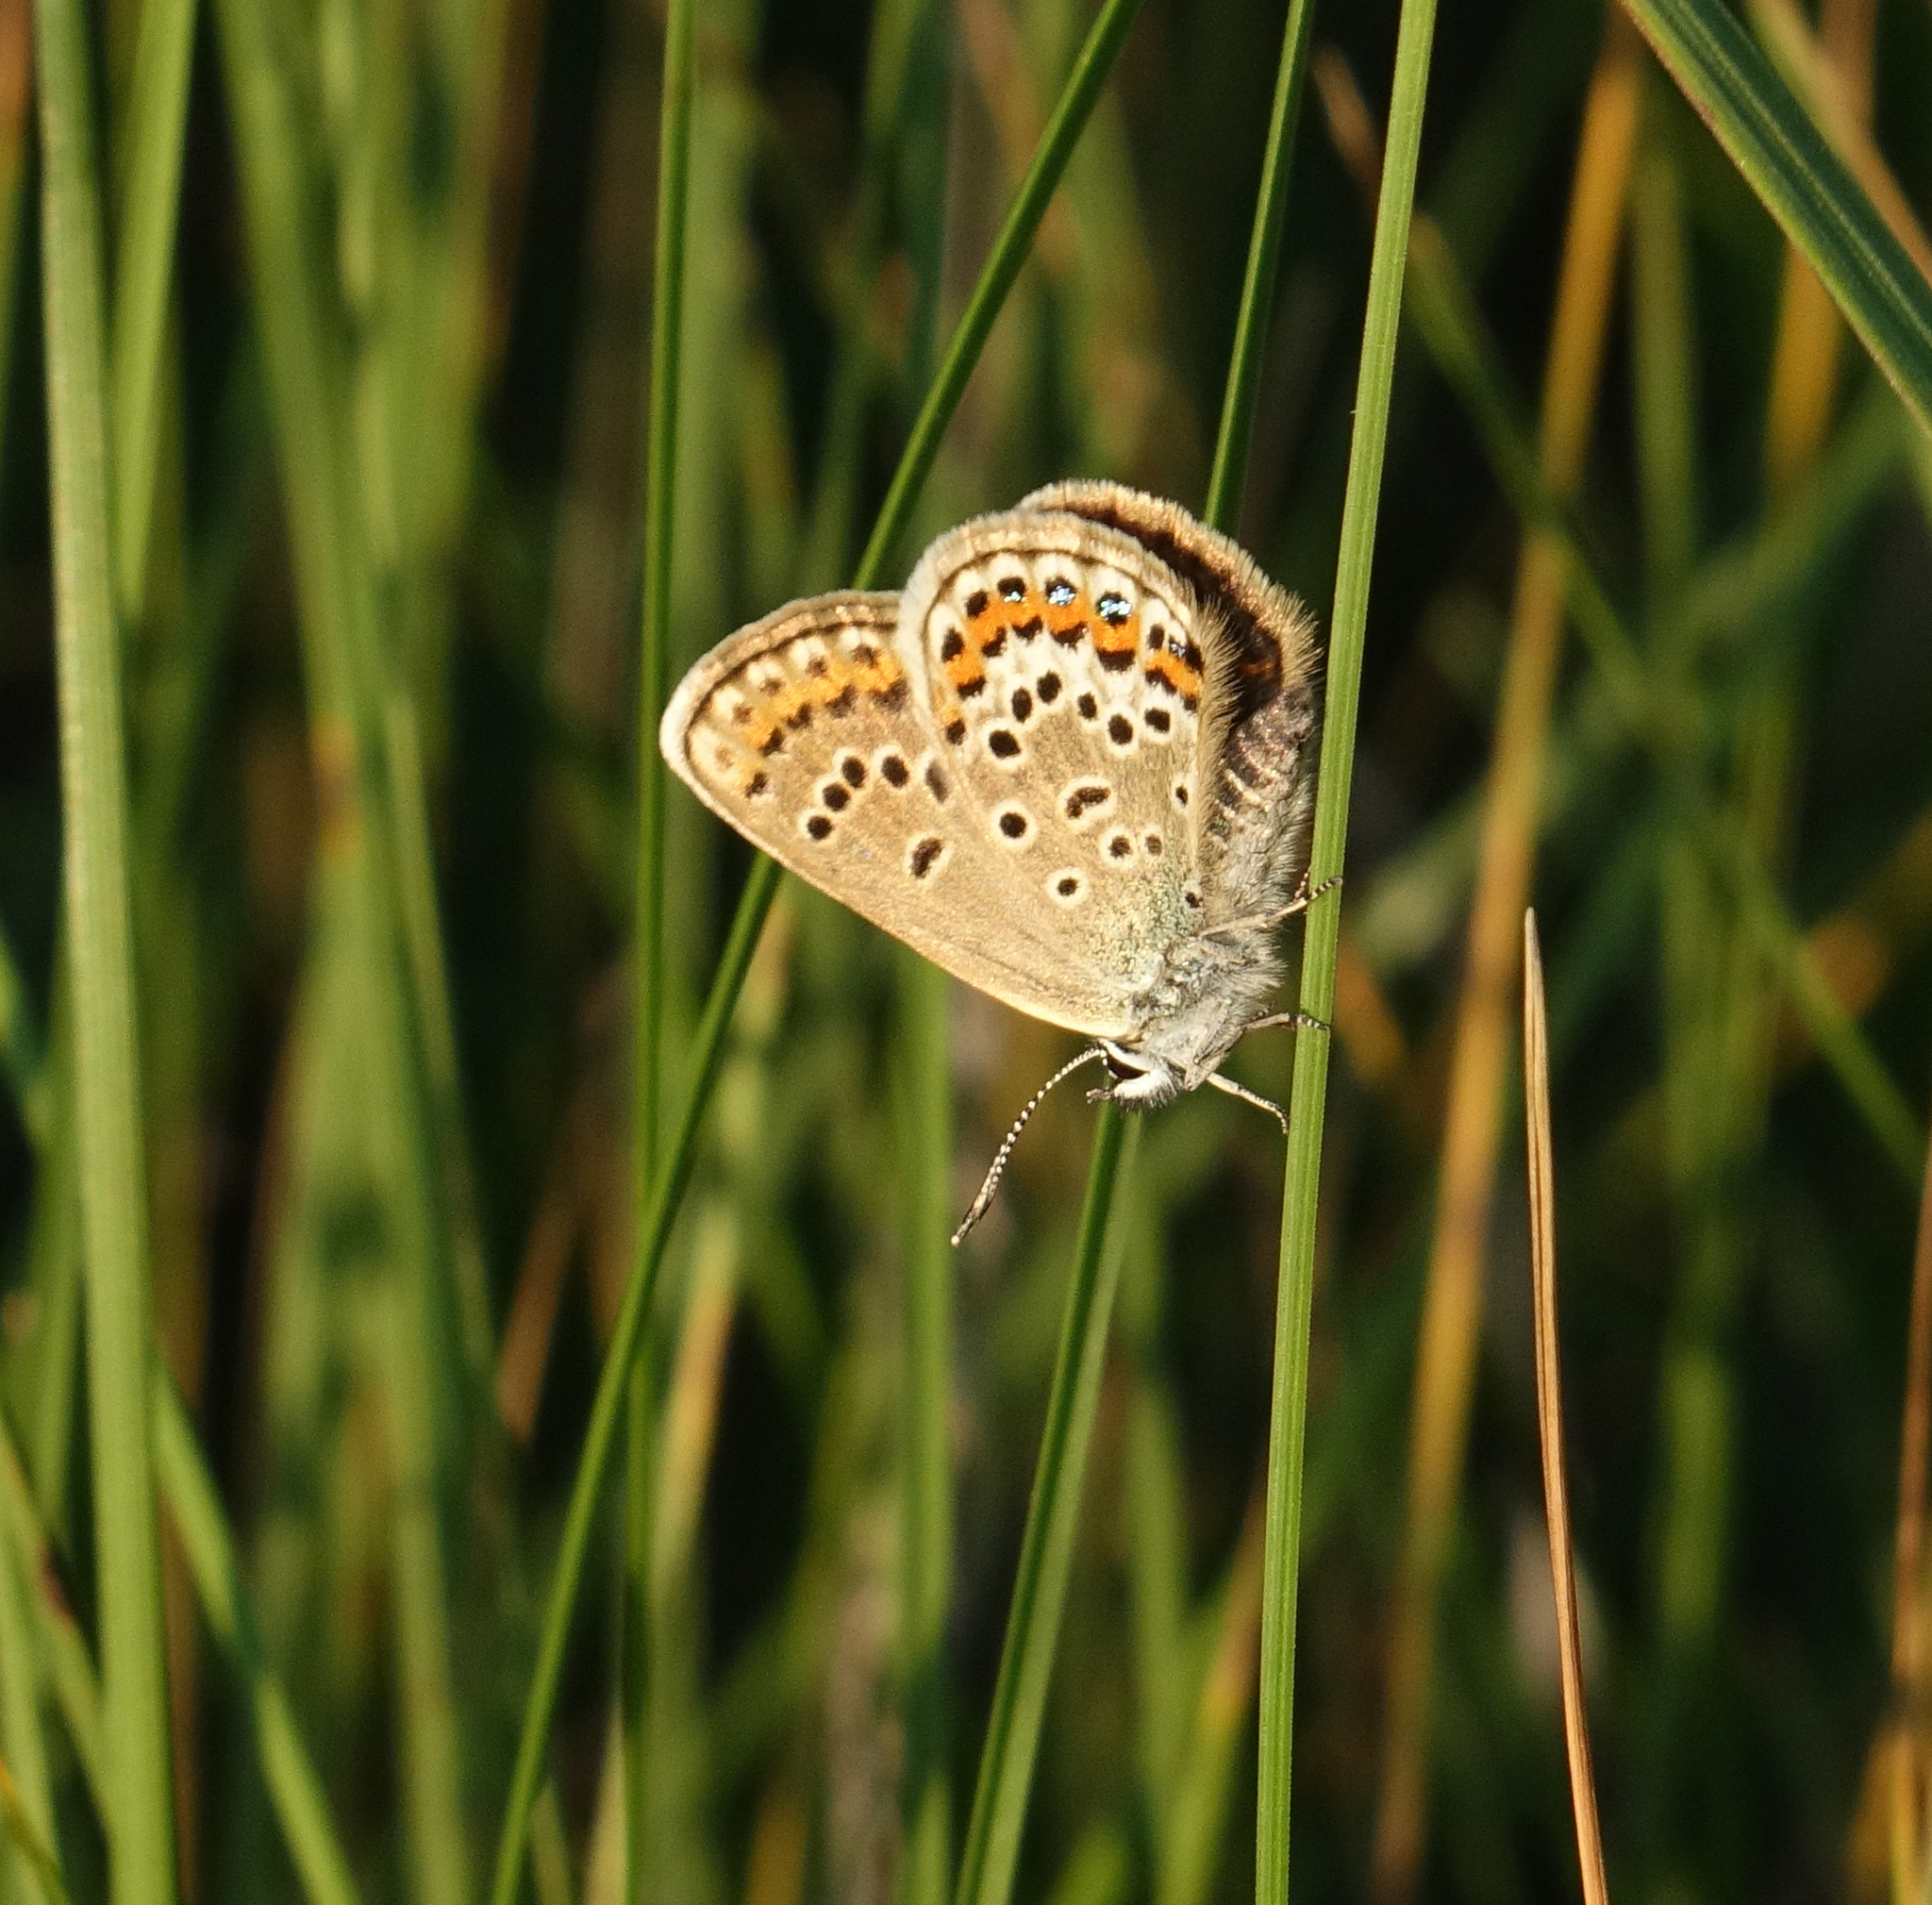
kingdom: Animalia
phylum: Arthropoda
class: Insecta
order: Lepidoptera
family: Lycaenidae
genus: Plebejus
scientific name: Plebejus argus
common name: Silver-studded blue
